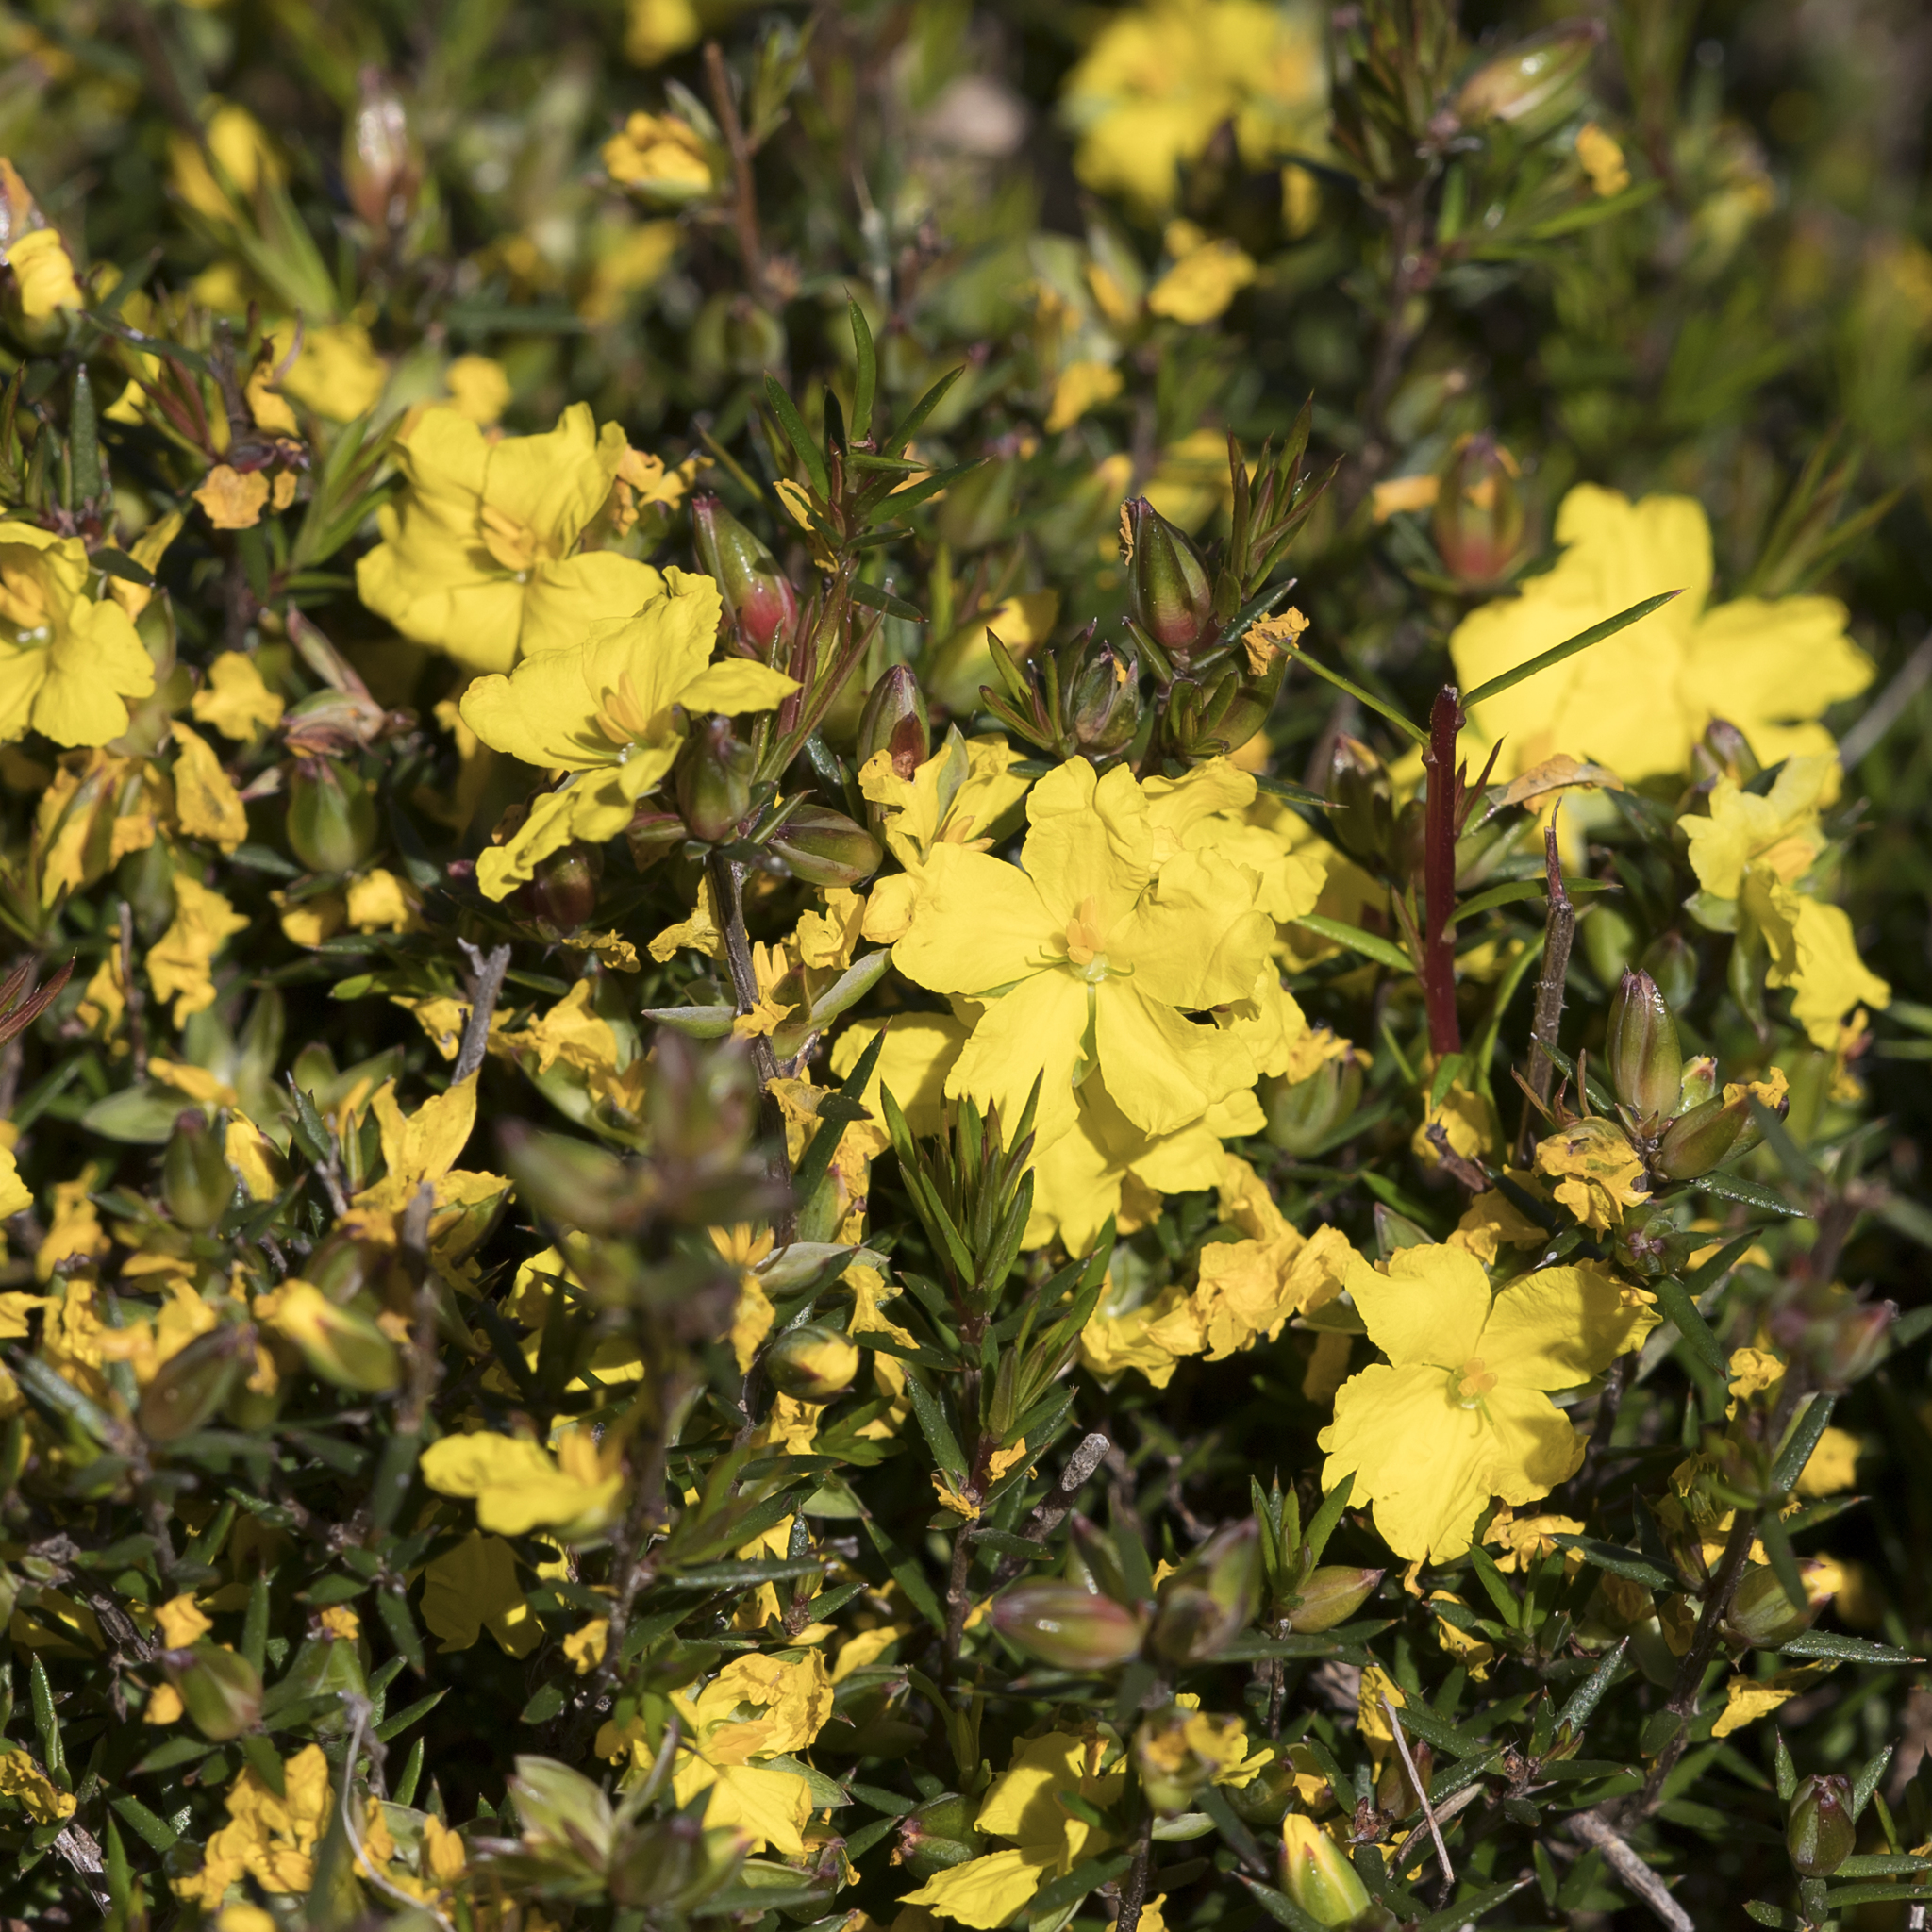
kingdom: Plantae
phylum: Tracheophyta
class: Magnoliopsida
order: Dilleniales
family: Dilleniaceae
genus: Hibbertia
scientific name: Hibbertia exutiacies
